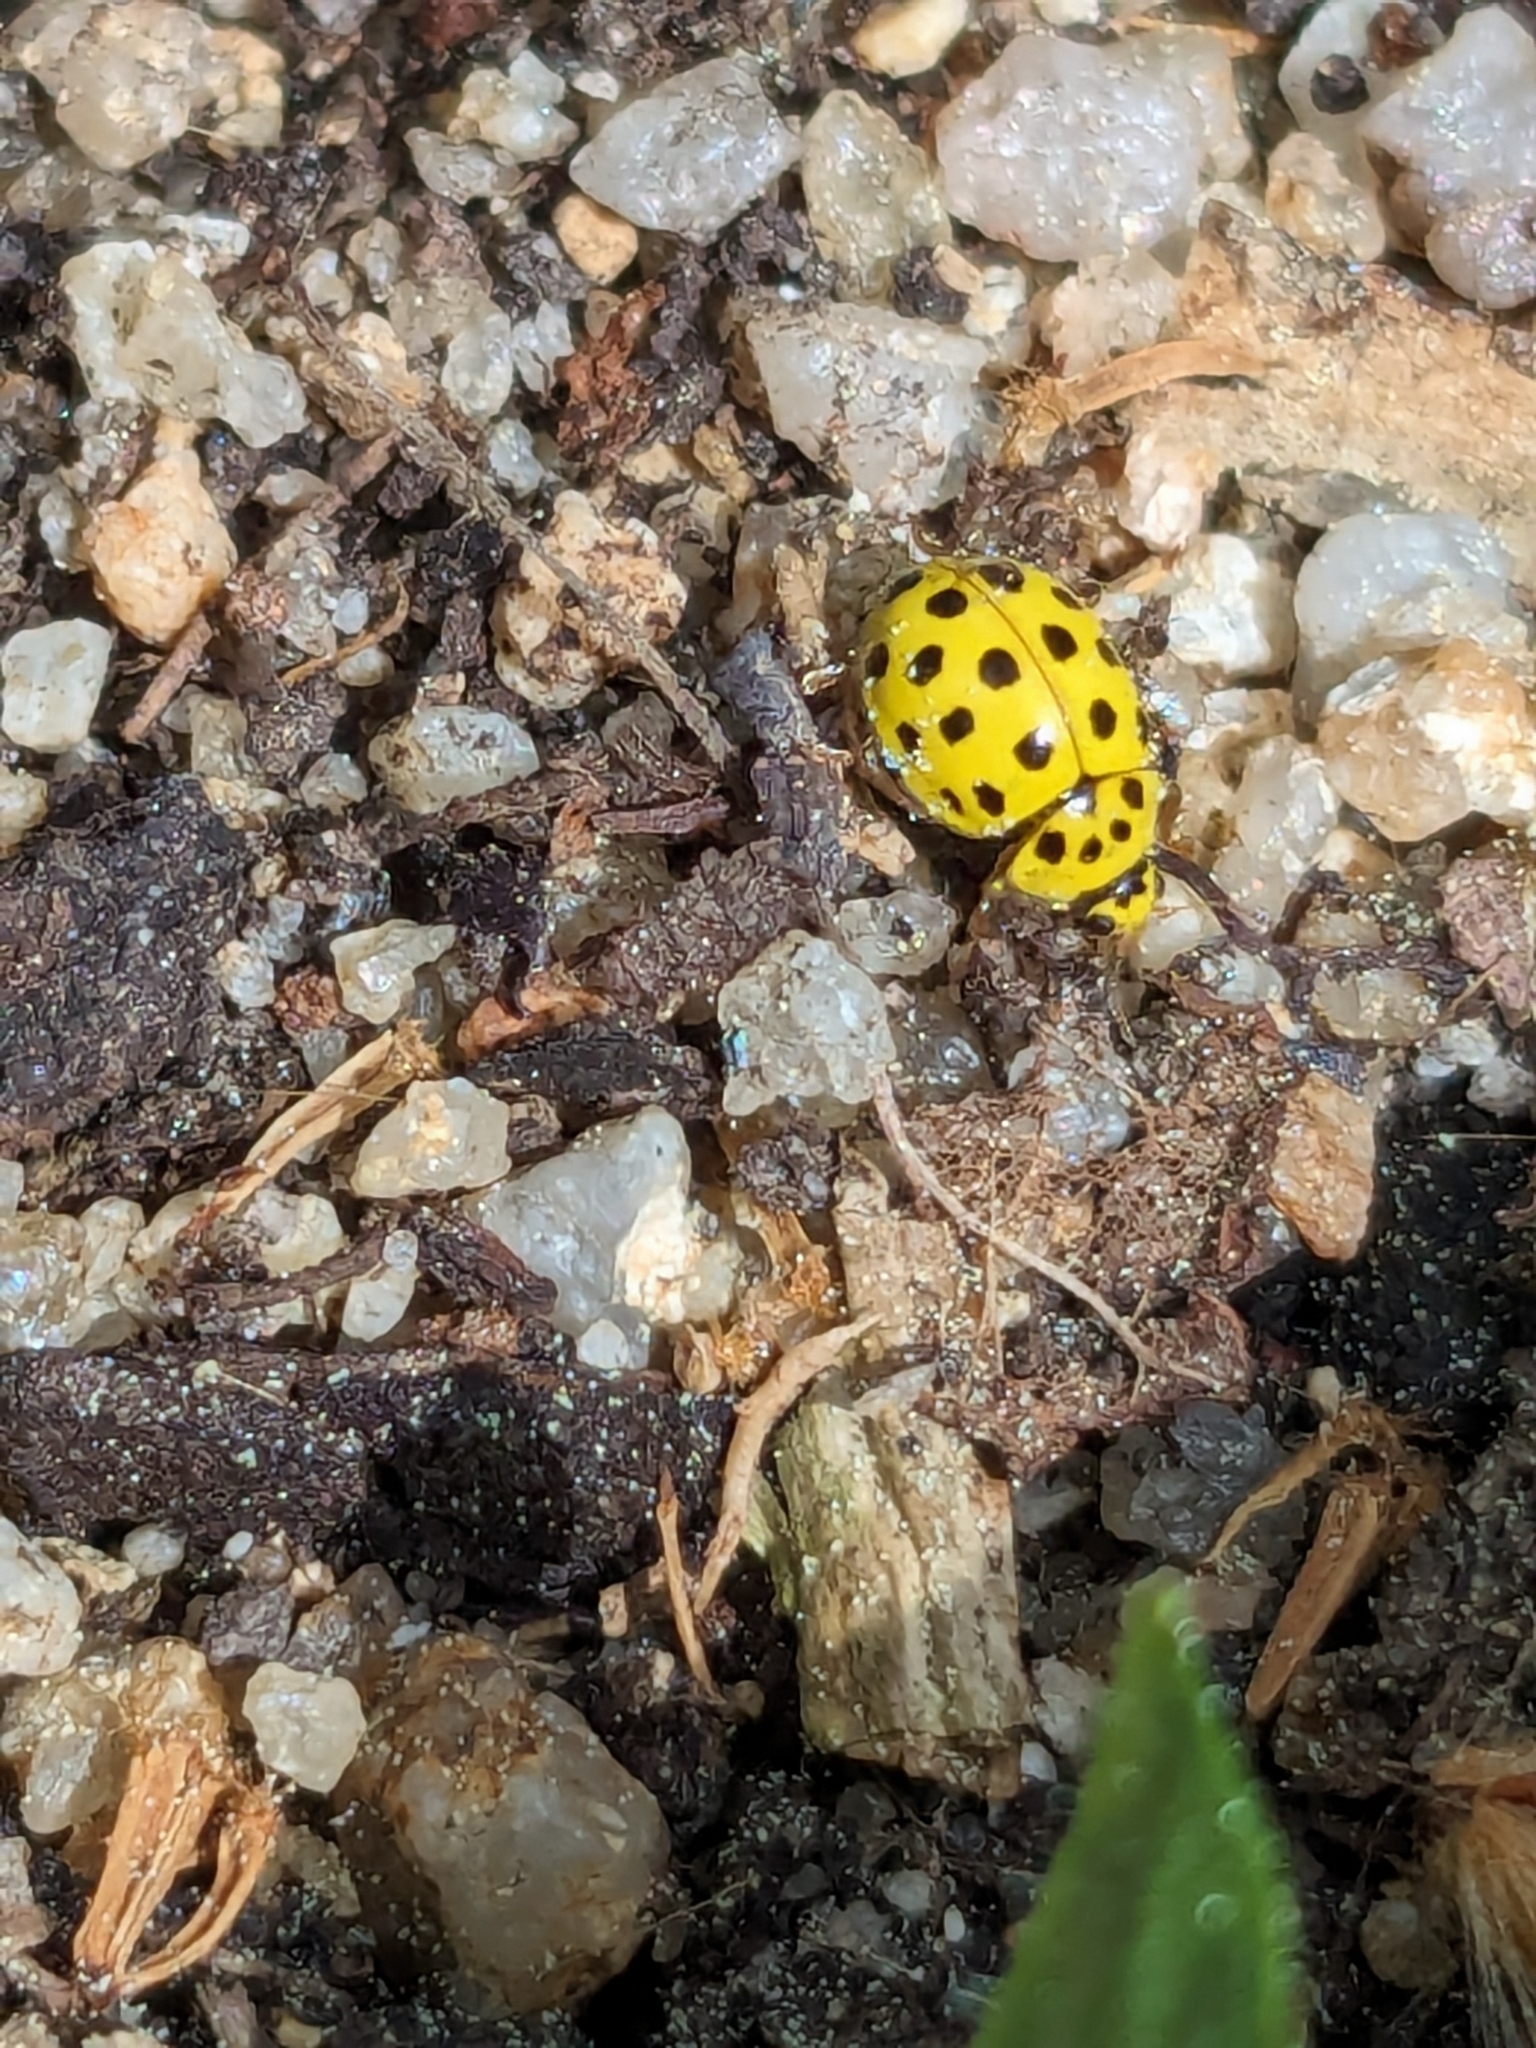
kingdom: Animalia
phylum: Arthropoda
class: Insecta
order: Coleoptera
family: Coccinellidae
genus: Psyllobora
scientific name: Psyllobora vigintiduopunctata
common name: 22-spot ladybird
